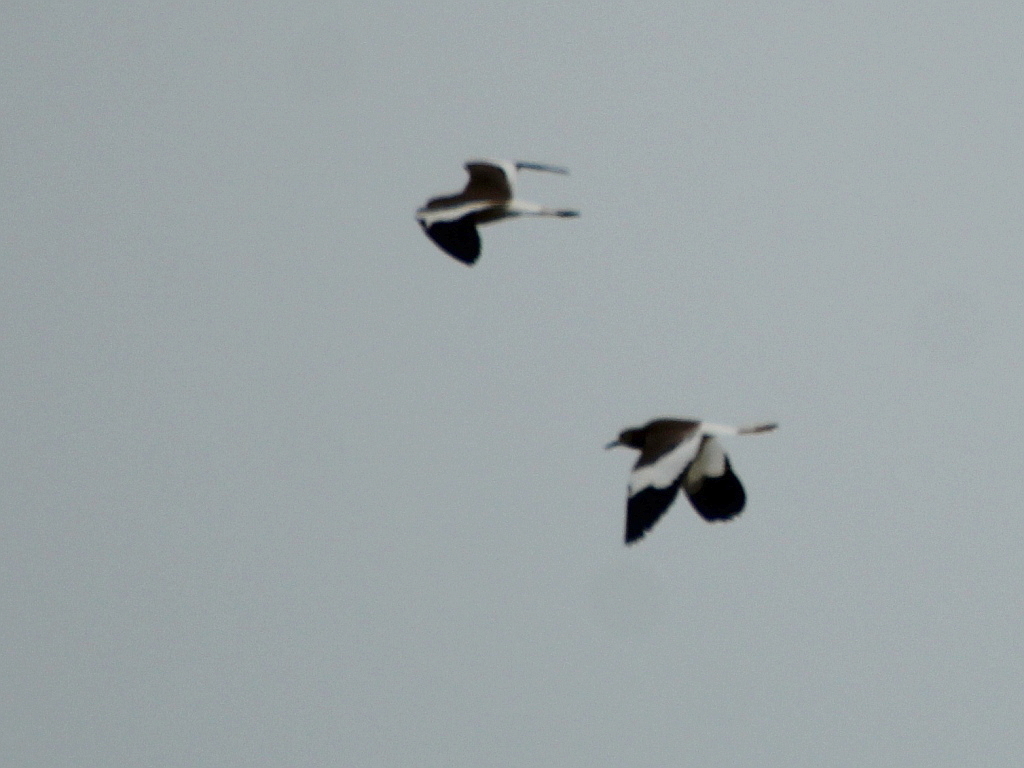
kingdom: Animalia
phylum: Chordata
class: Aves
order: Charadriiformes
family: Charadriidae
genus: Vanellus
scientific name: Vanellus leucurus
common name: White-tailed lapwing
